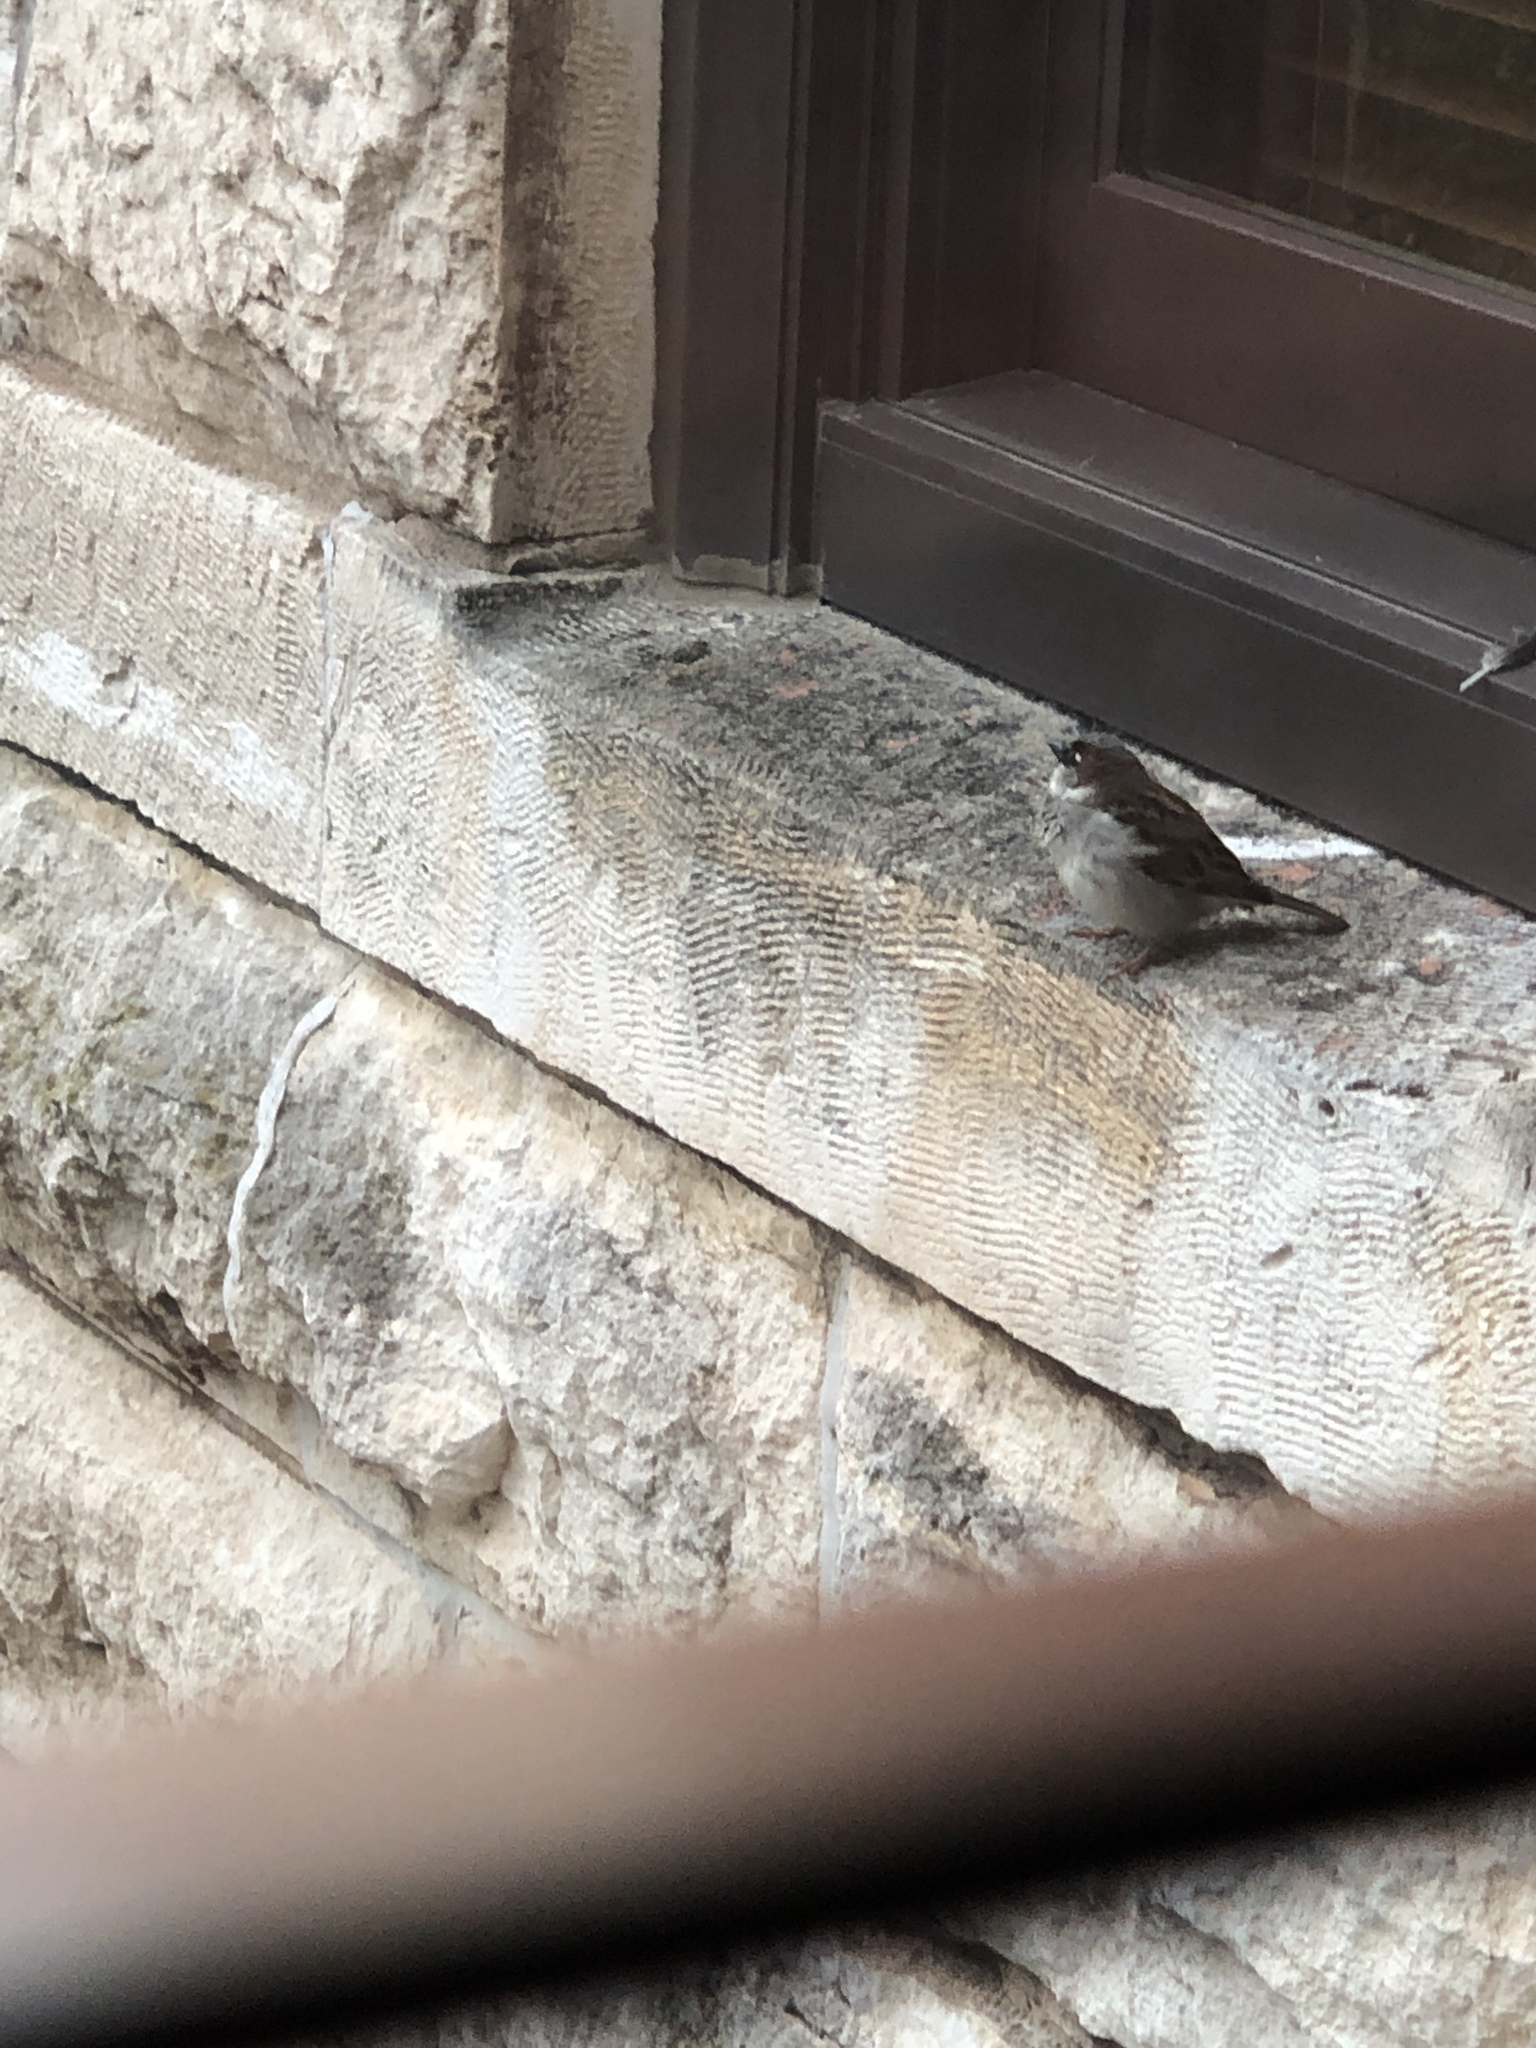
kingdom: Animalia
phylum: Chordata
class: Aves
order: Passeriformes
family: Passeridae
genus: Passer
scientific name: Passer domesticus
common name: House sparrow
